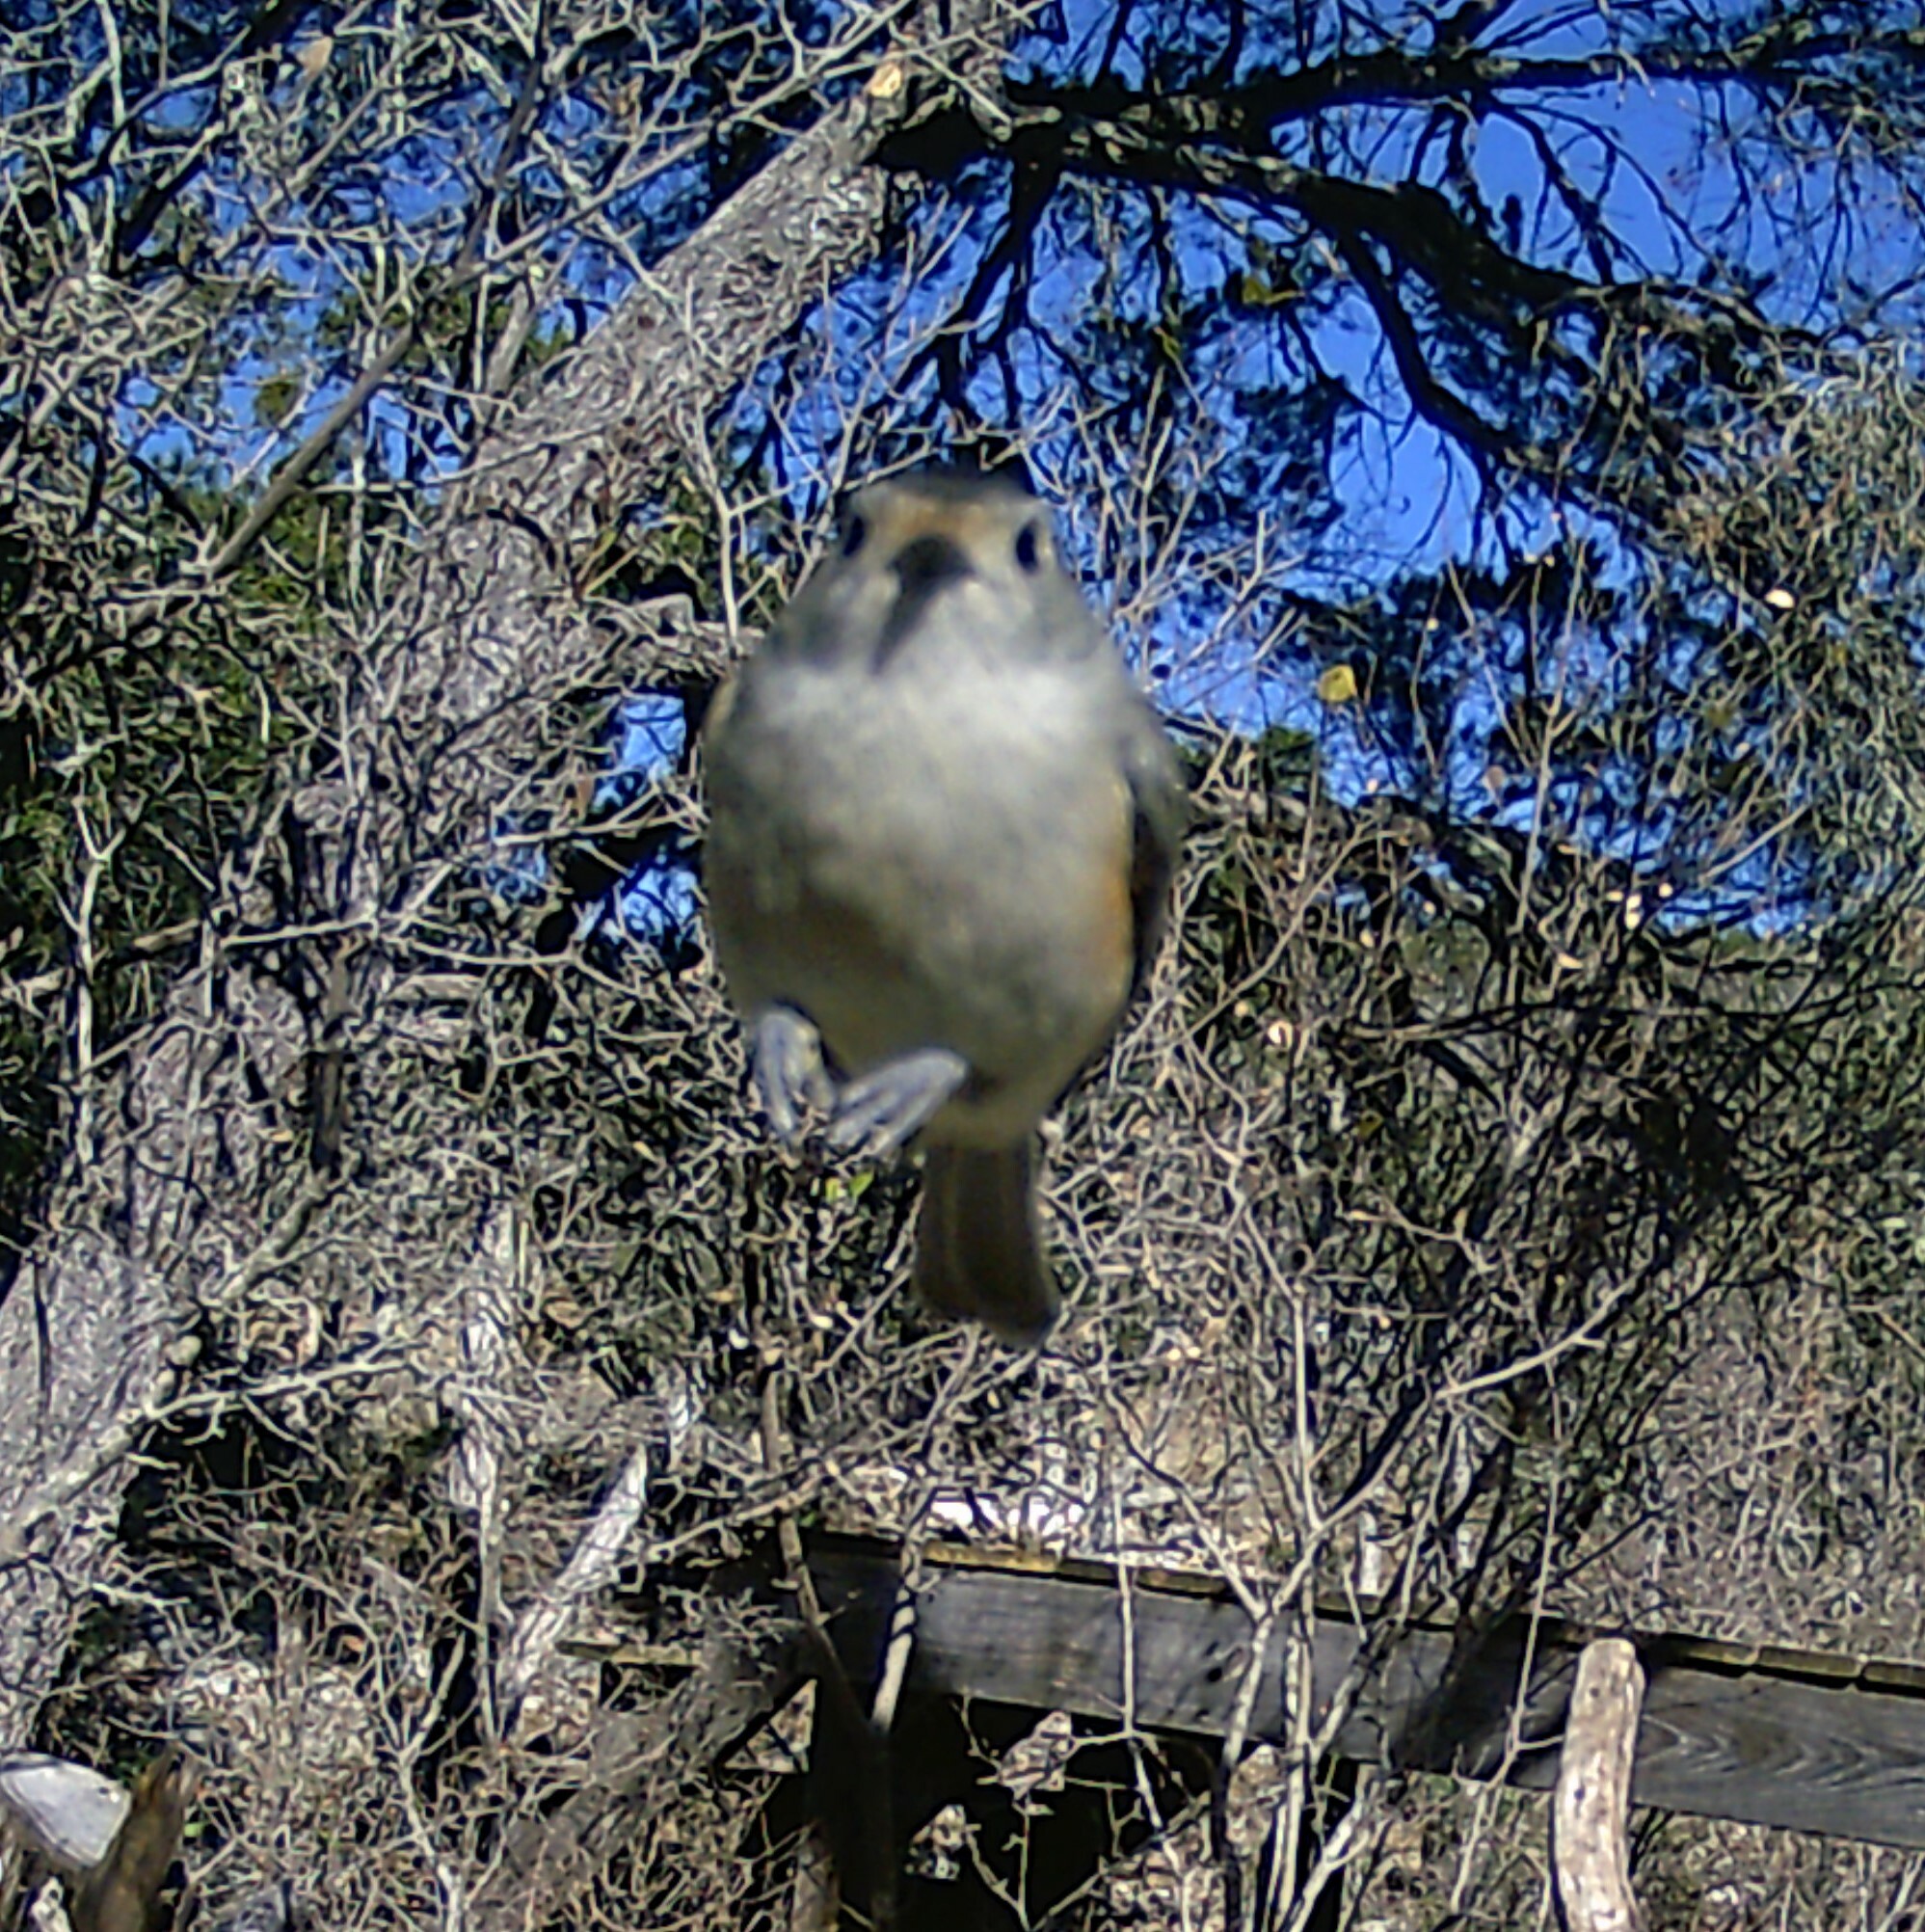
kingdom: Animalia
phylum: Chordata
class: Aves
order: Passeriformes
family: Paridae
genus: Baeolophus
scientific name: Baeolophus atricristatus
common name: Black-crested titmouse
